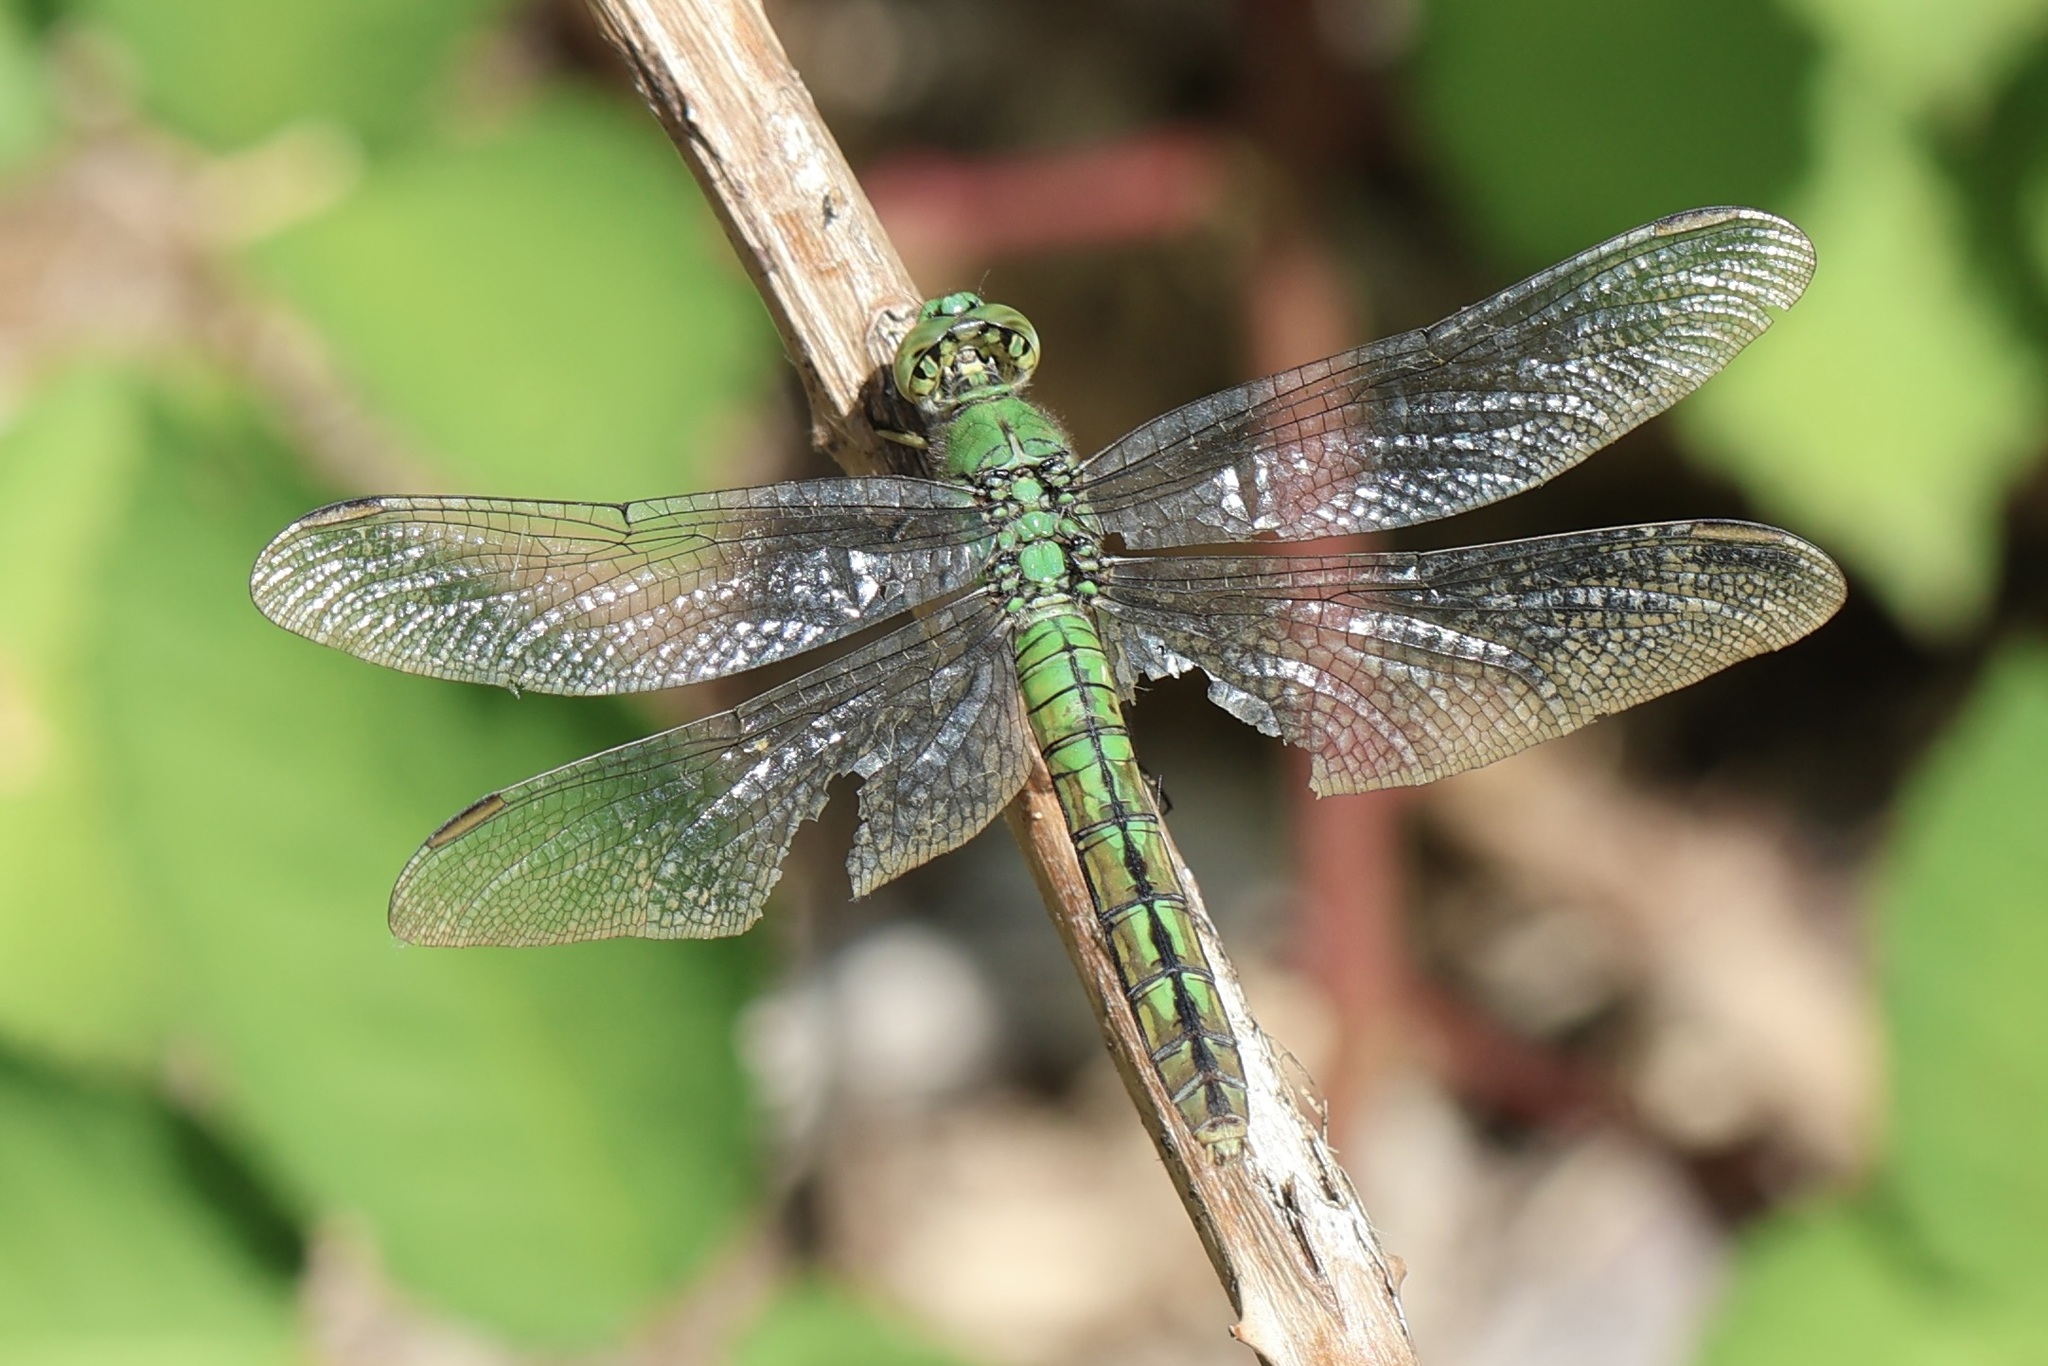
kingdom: Animalia
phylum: Arthropoda
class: Insecta
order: Odonata
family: Libellulidae
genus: Erythemis
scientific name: Erythemis collocata
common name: Western pondhawk
